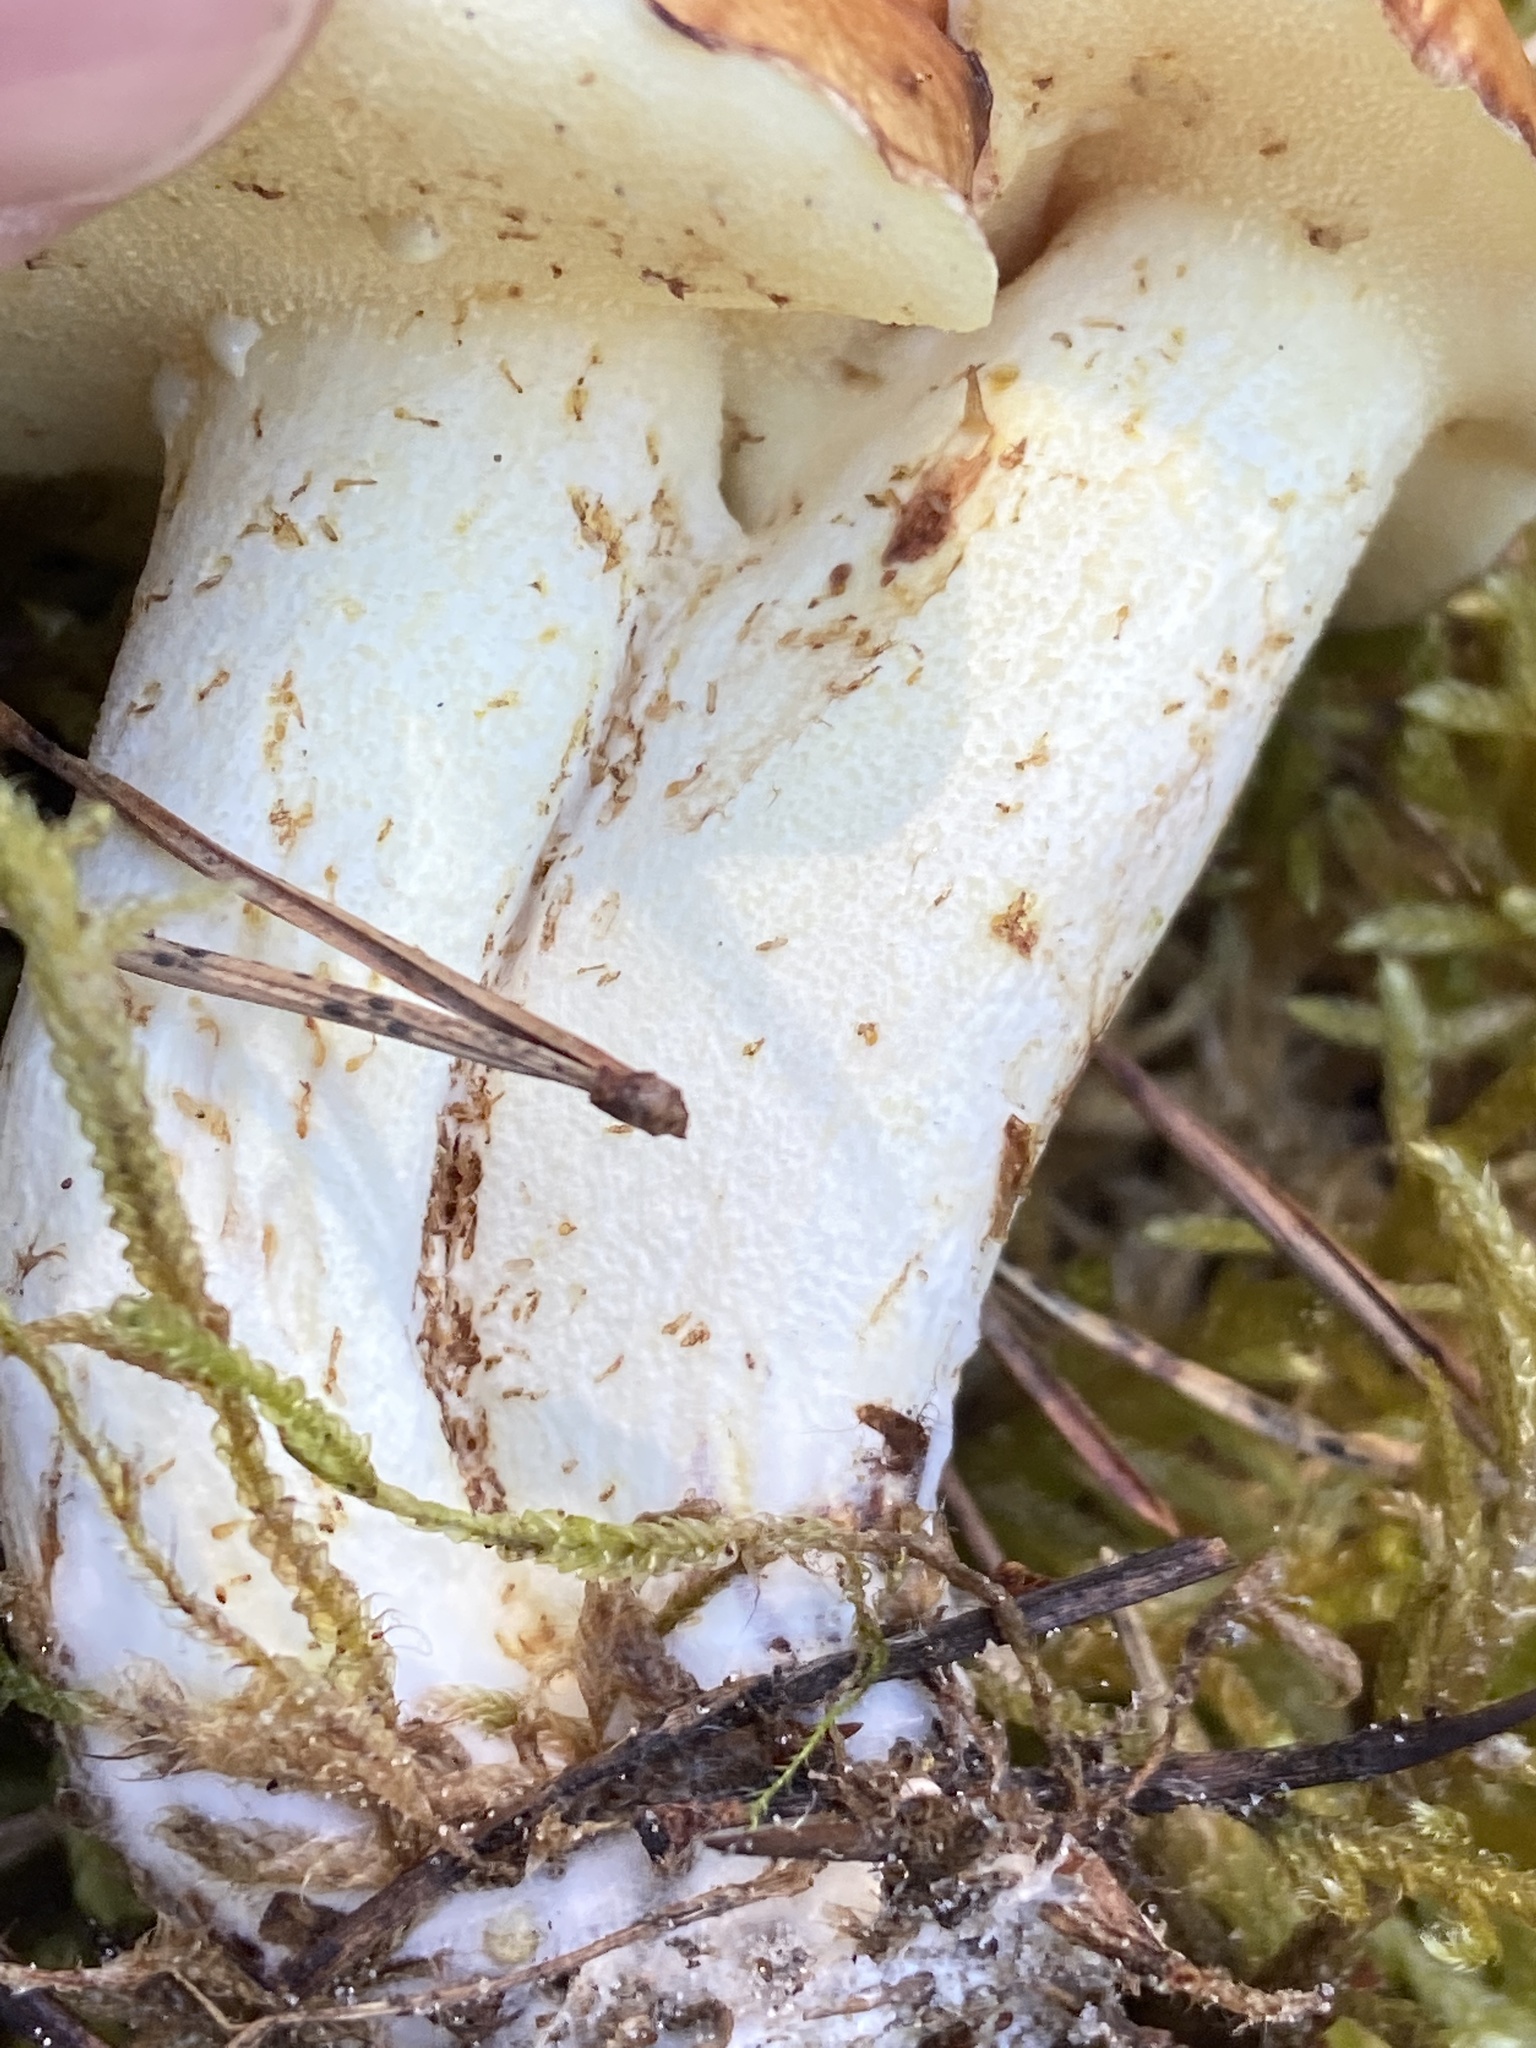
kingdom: Fungi
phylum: Basidiomycota
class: Agaricomycetes
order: Boletales
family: Suillaceae
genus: Suillus
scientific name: Suillus granulatus
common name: Weeping bolete
